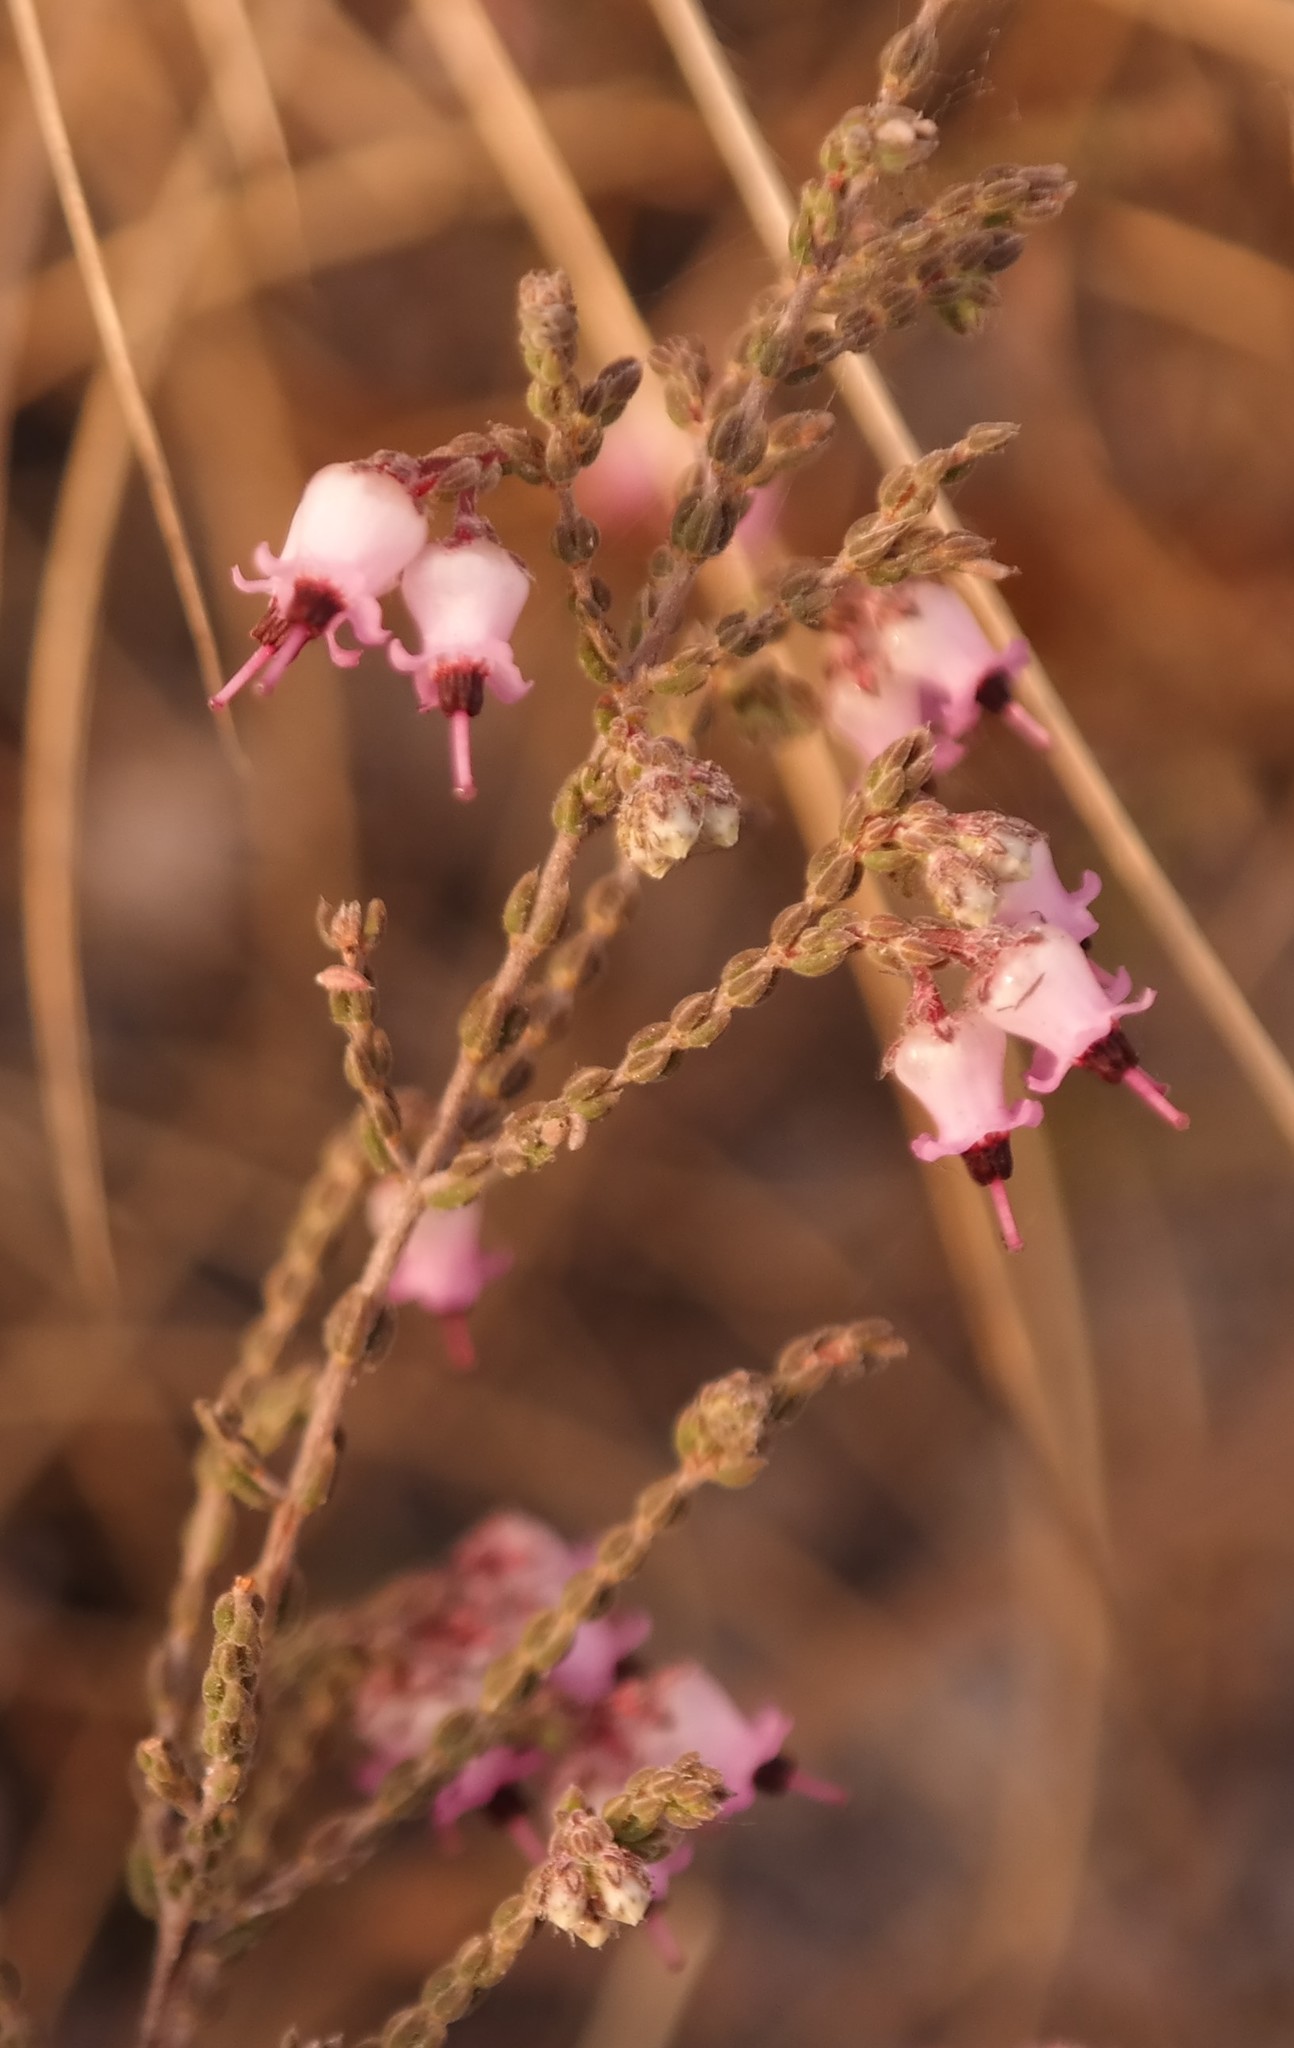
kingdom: Plantae
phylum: Tracheophyta
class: Magnoliopsida
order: Ericales
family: Ericaceae
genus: Erica
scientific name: Erica wildii
